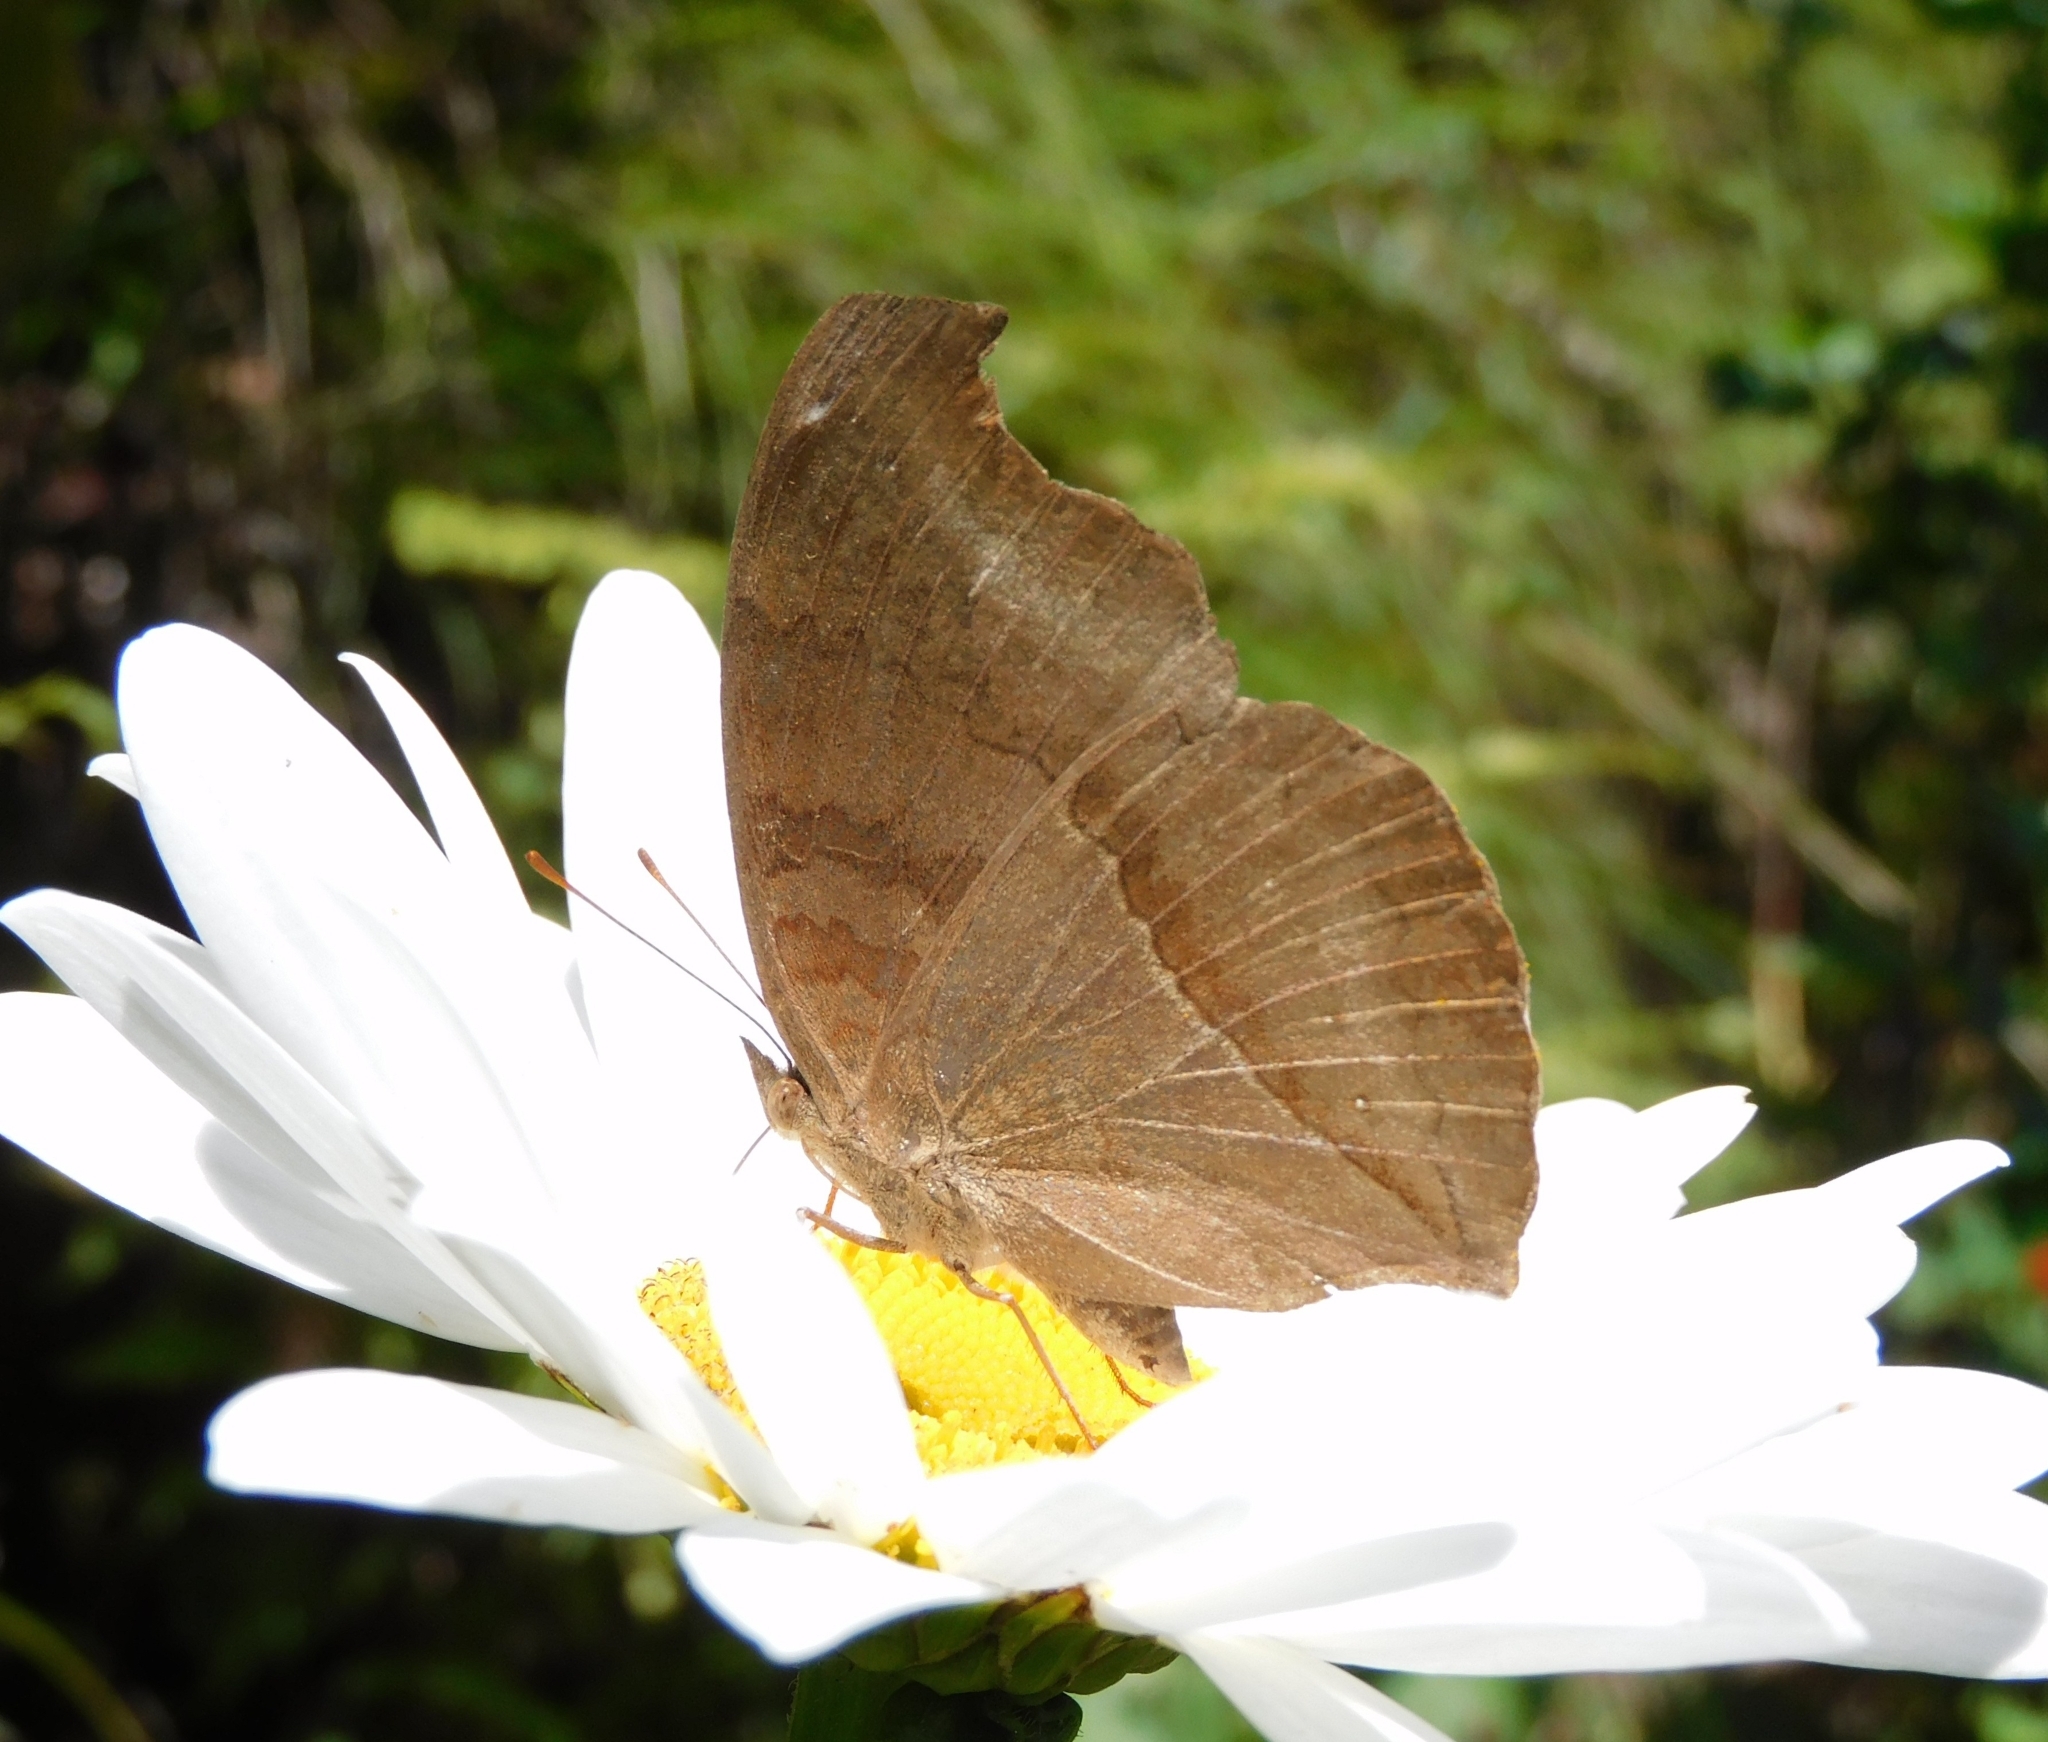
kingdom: Animalia
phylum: Arthropoda
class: Insecta
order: Lepidoptera
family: Nymphalidae
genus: Junonia
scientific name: Junonia iphita
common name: Chocolate pansy
